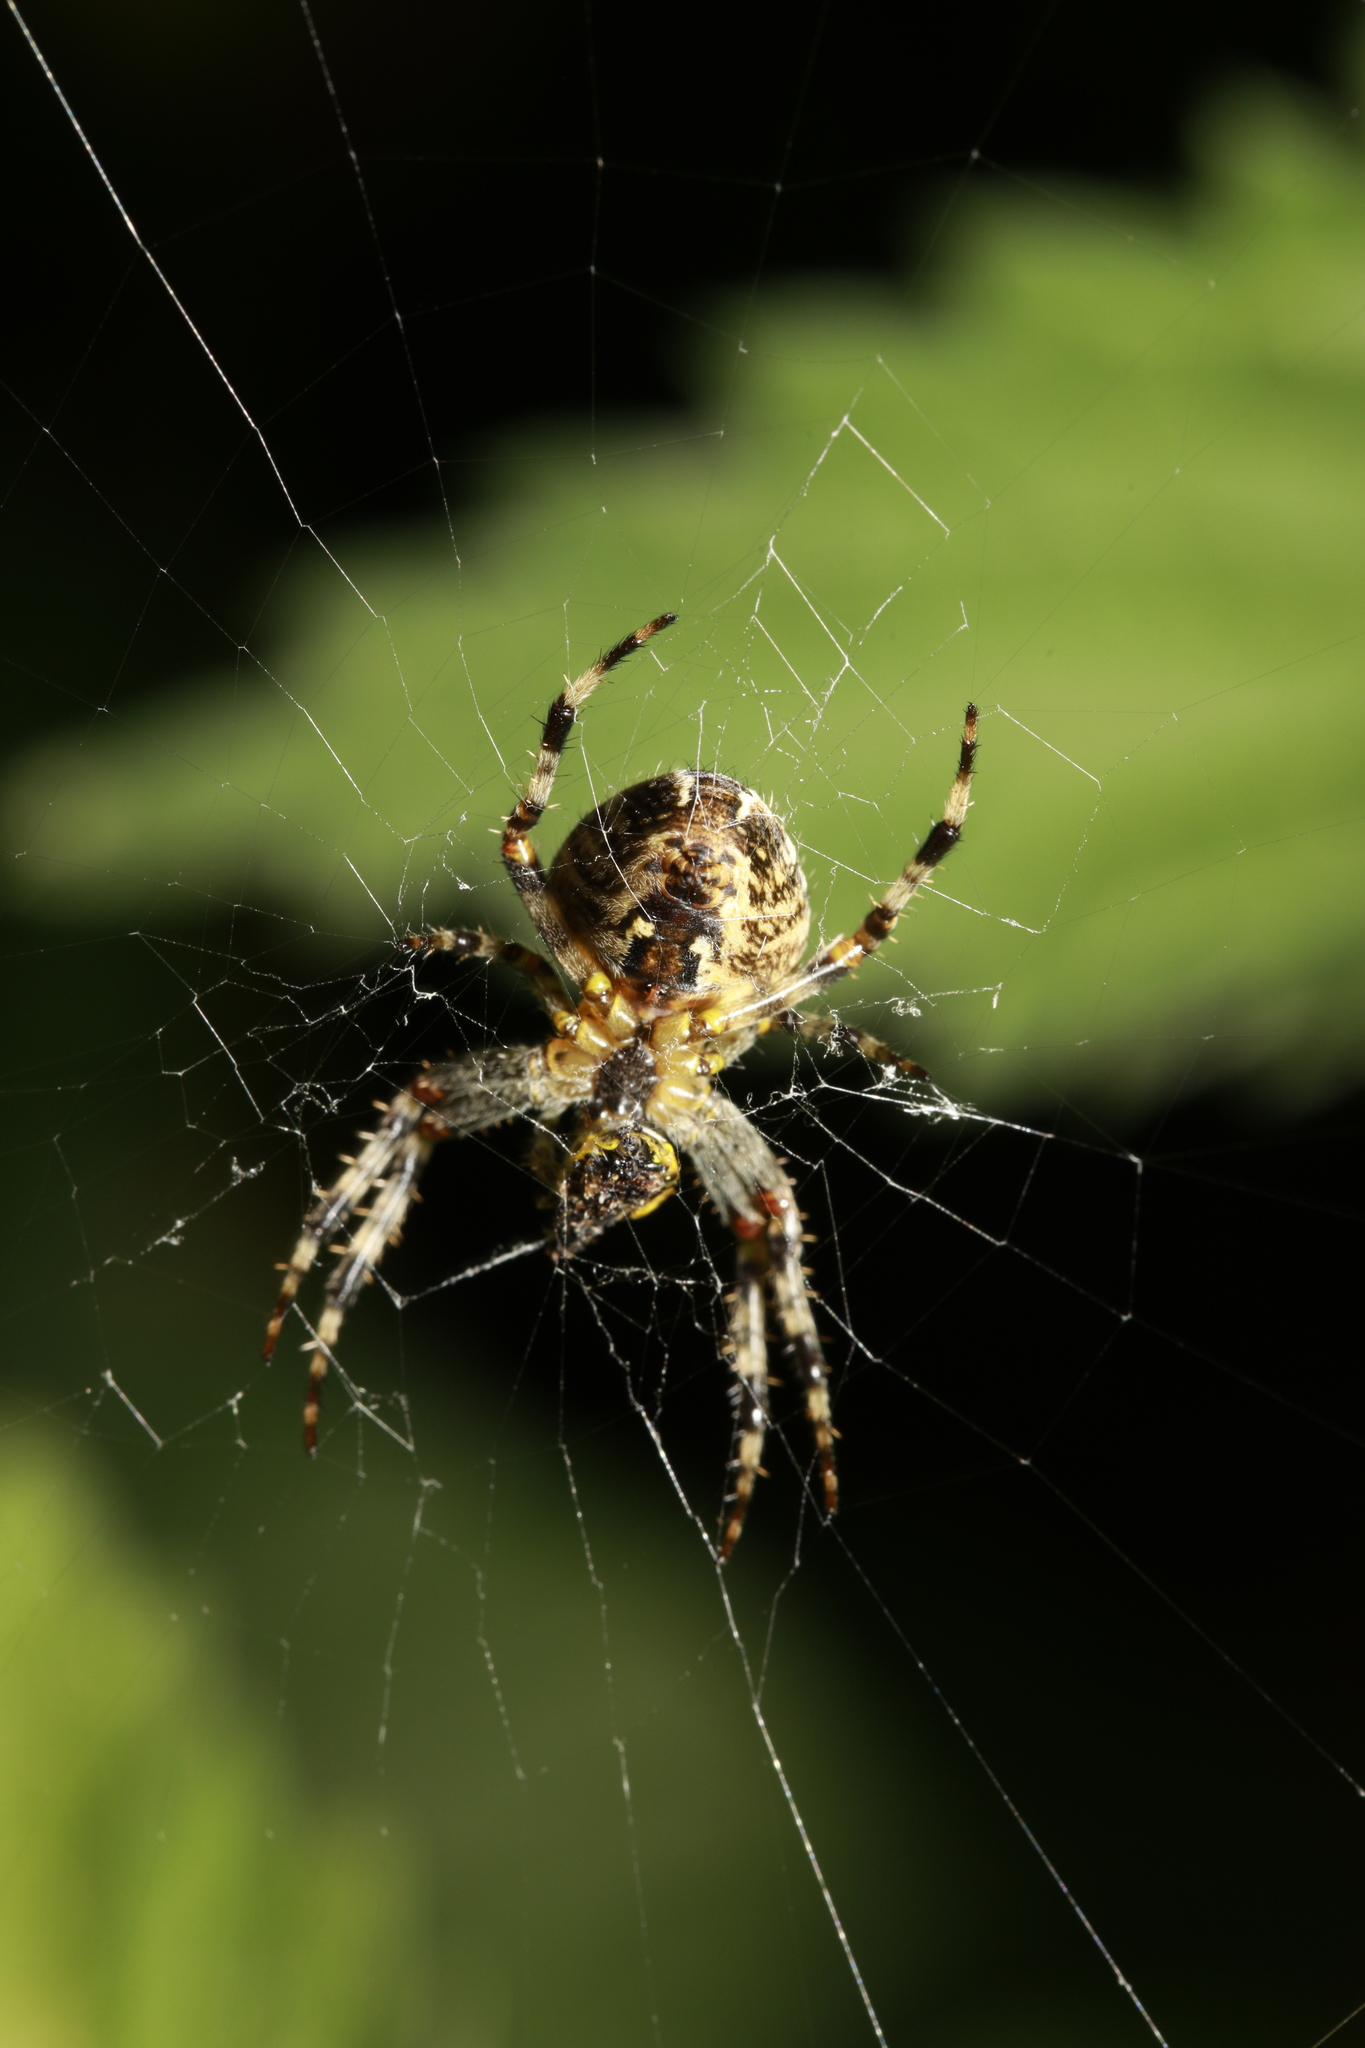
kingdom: Animalia
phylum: Arthropoda
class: Arachnida
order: Araneae
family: Araneidae
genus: Araneus
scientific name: Araneus diadematus
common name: Cross orbweaver
